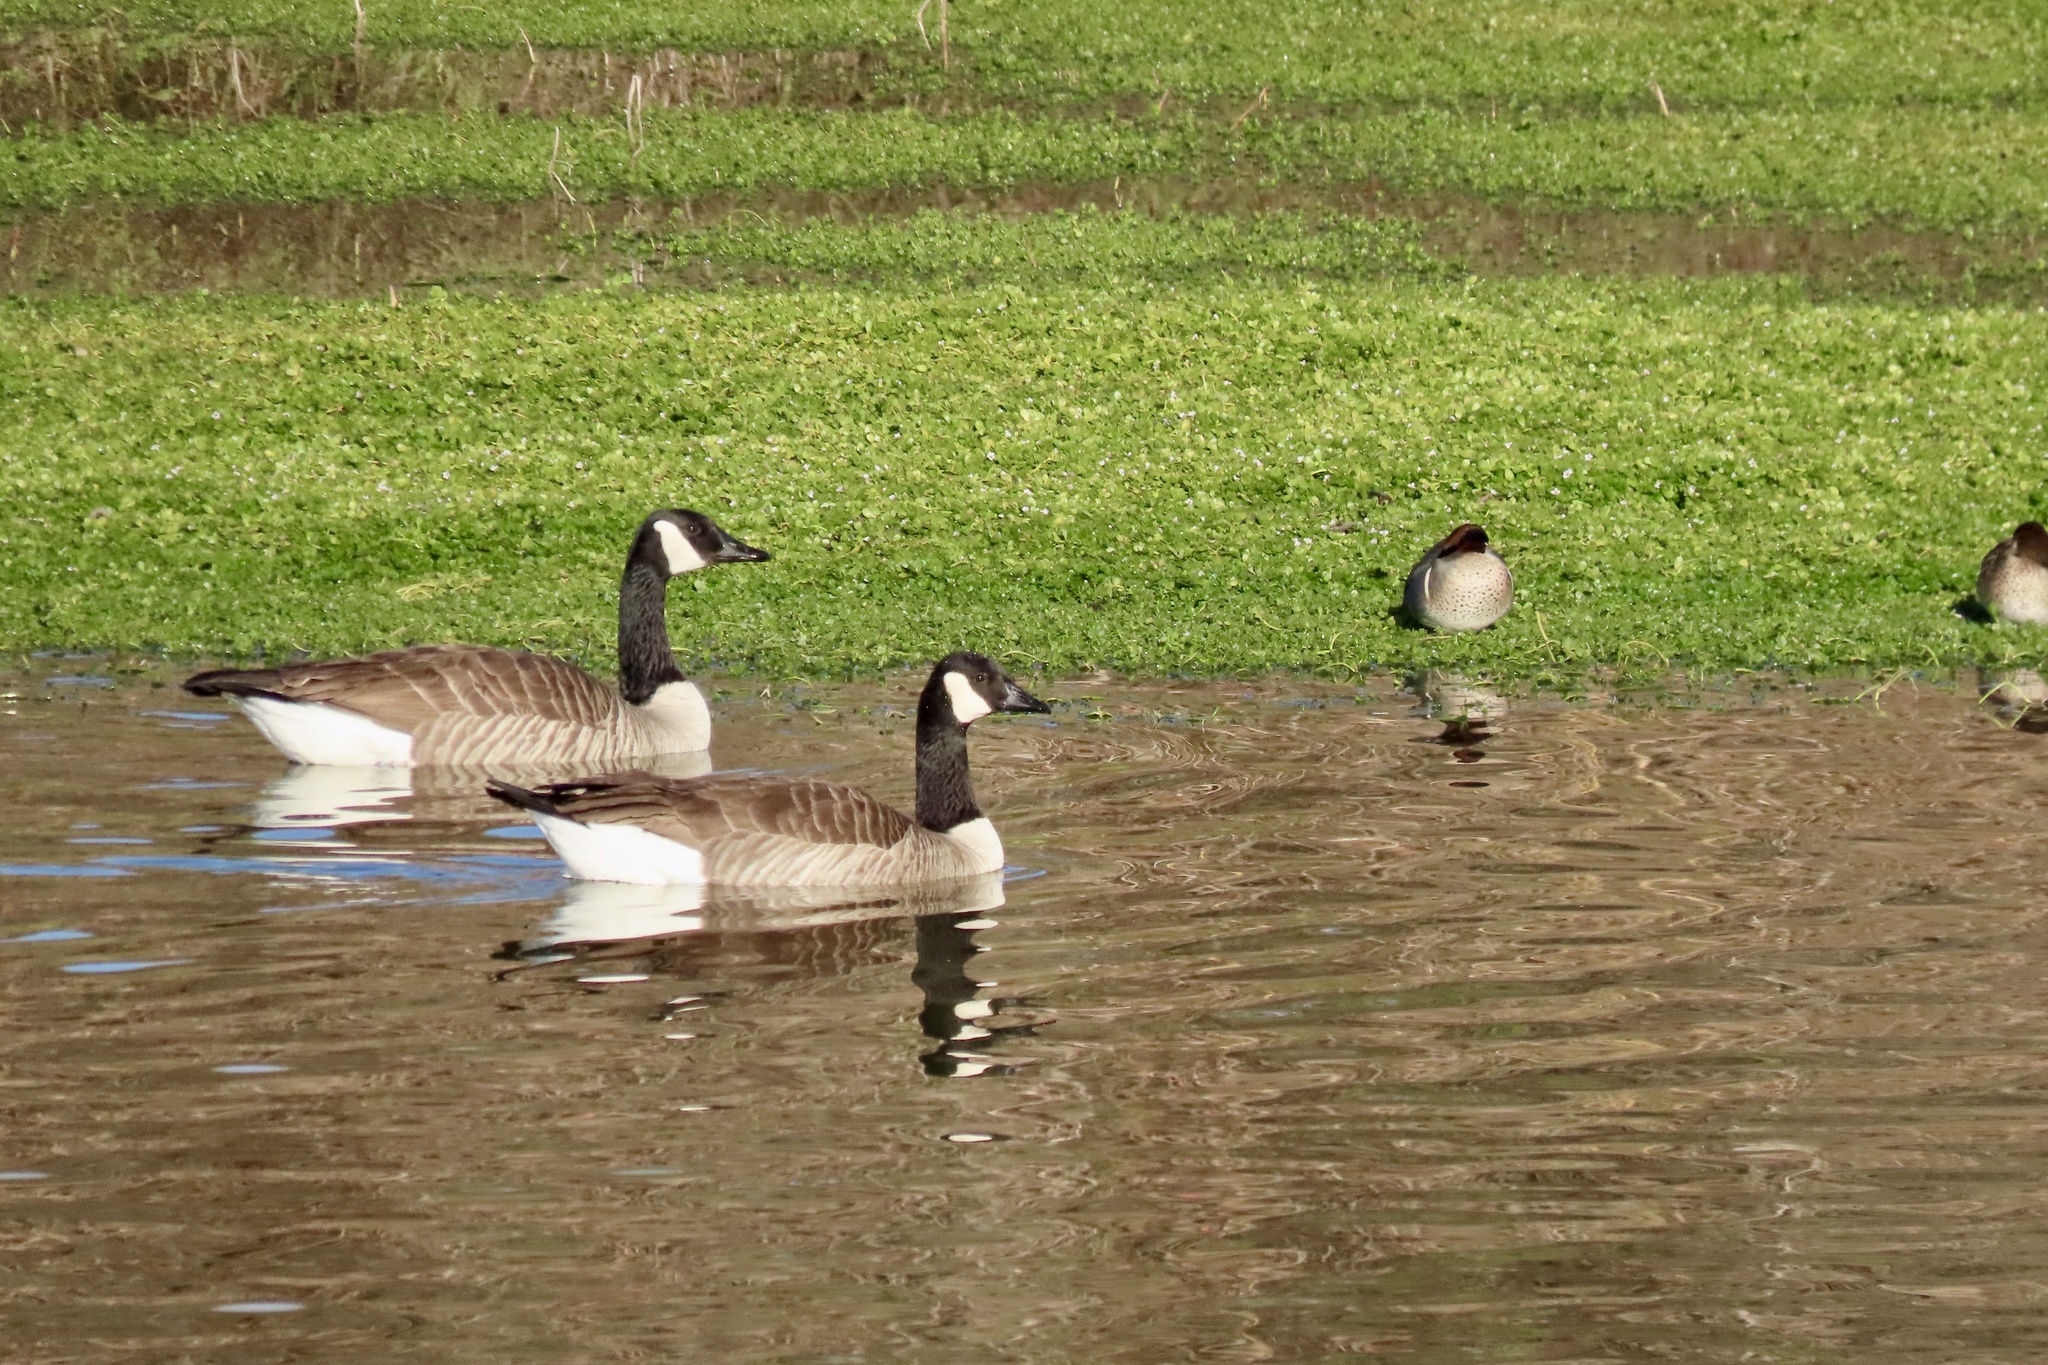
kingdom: Animalia
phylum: Chordata
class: Aves
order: Anseriformes
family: Anatidae
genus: Branta
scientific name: Branta canadensis
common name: Canada goose
